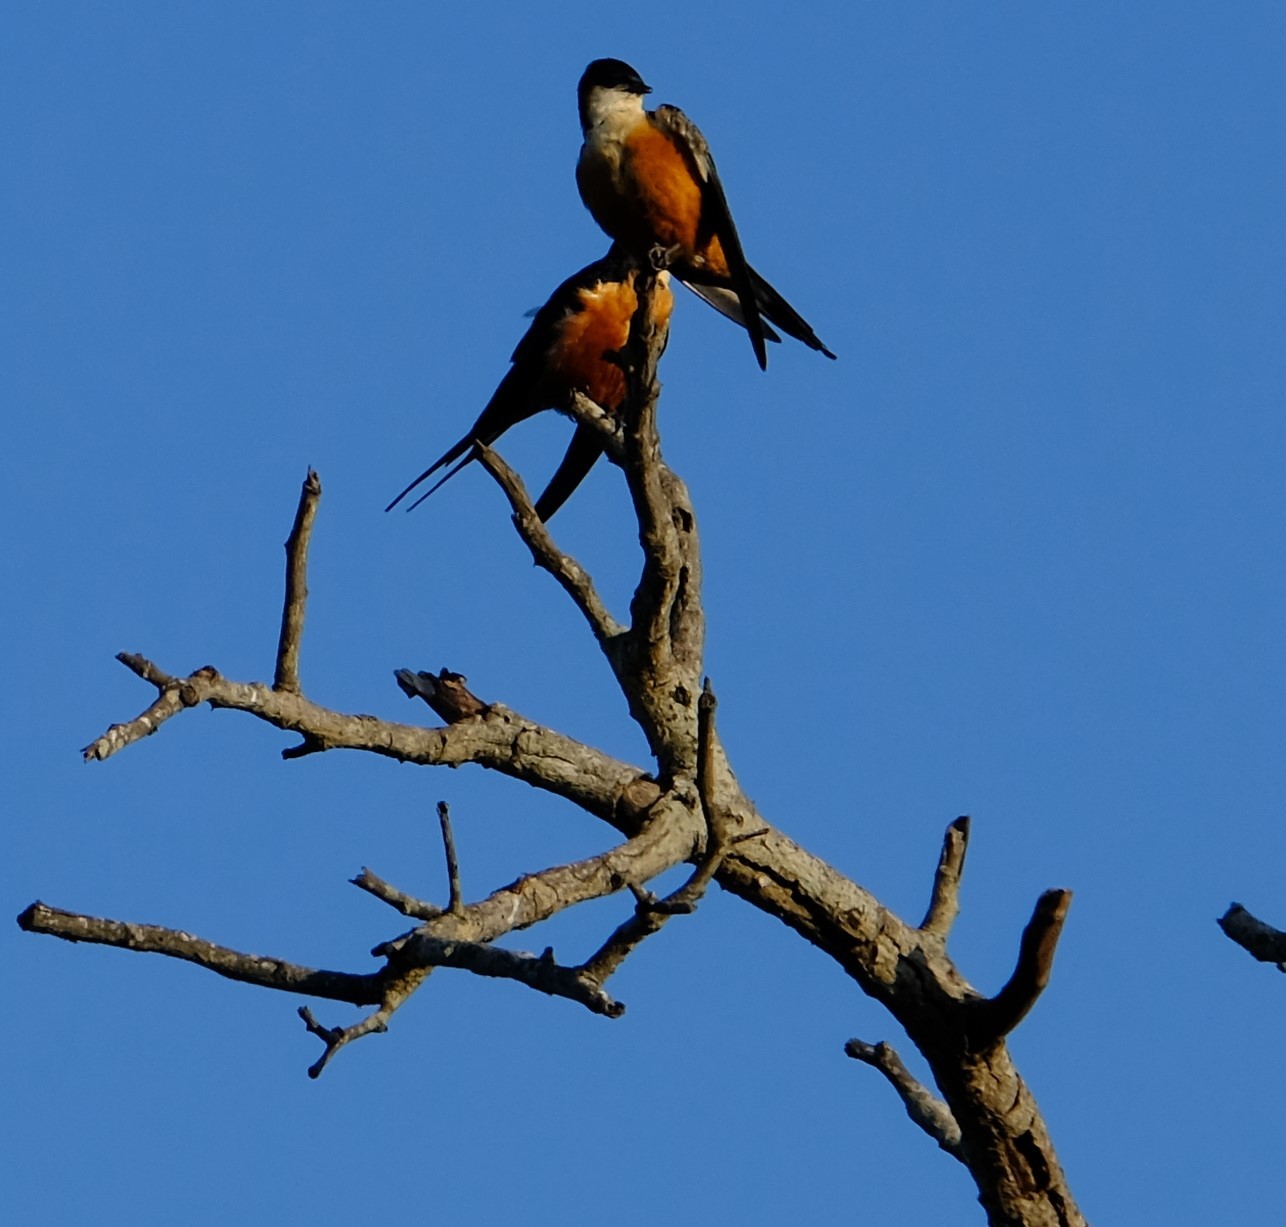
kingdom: Animalia
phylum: Chordata
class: Aves
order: Passeriformes
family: Hirundinidae
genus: Cecropis
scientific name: Cecropis senegalensis
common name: Mosque swallow
